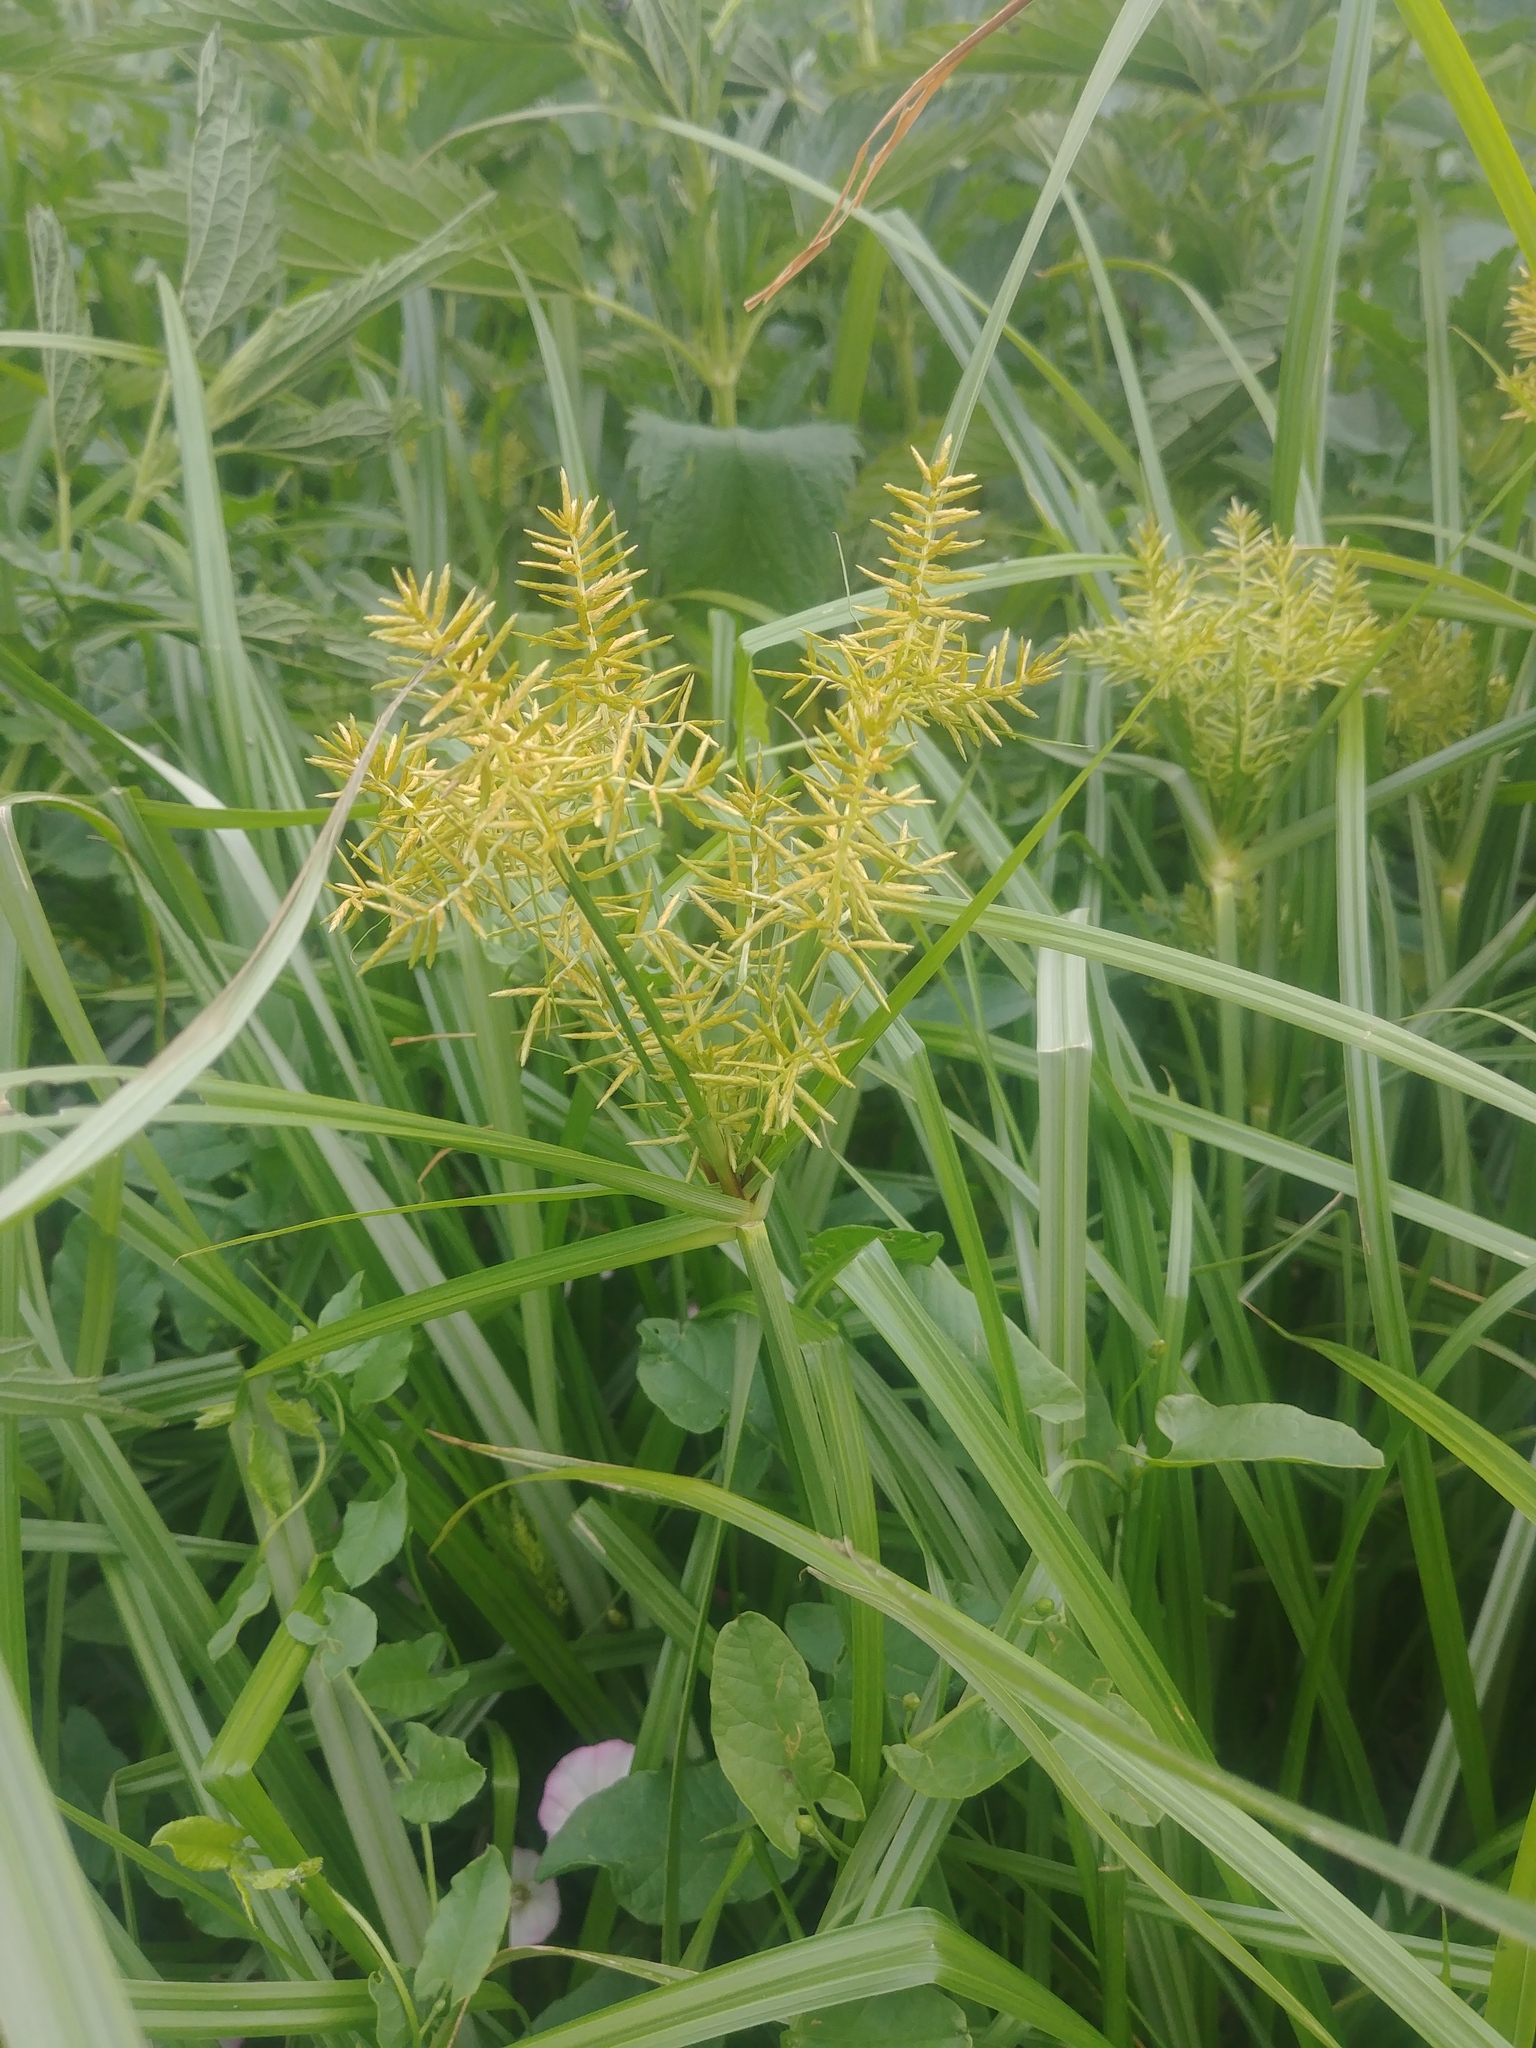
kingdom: Plantae
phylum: Tracheophyta
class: Liliopsida
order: Poales
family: Cyperaceae
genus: Cyperus
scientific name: Cyperus esculentus
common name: Yellow nutsedge
